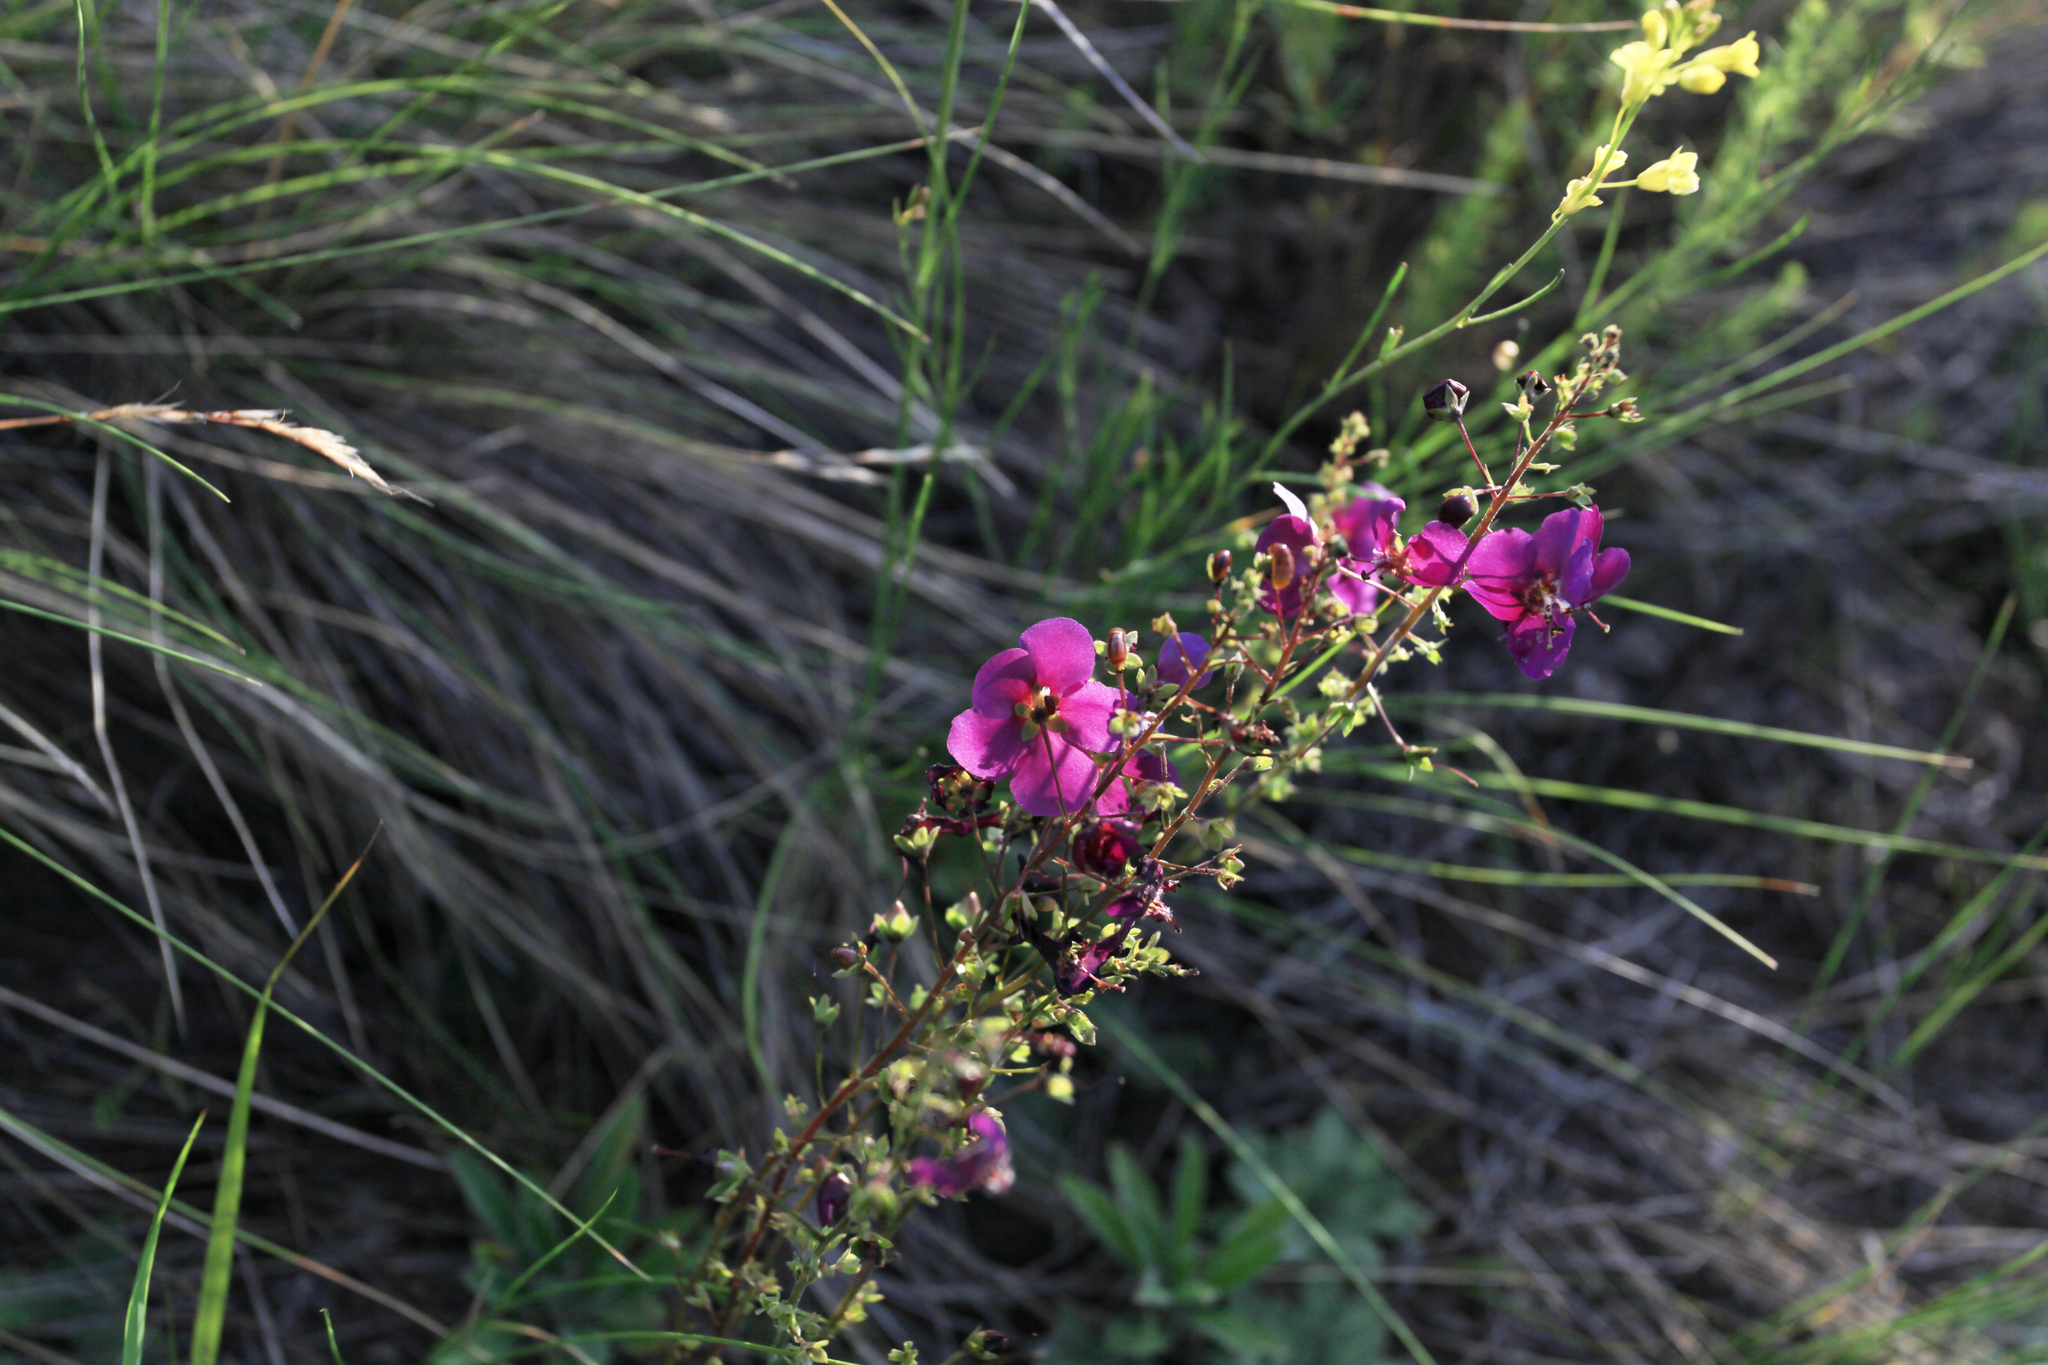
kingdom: Plantae
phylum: Tracheophyta
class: Magnoliopsida
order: Lamiales
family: Scrophulariaceae
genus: Verbascum
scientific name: Verbascum phoeniceum
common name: Purple mullein
